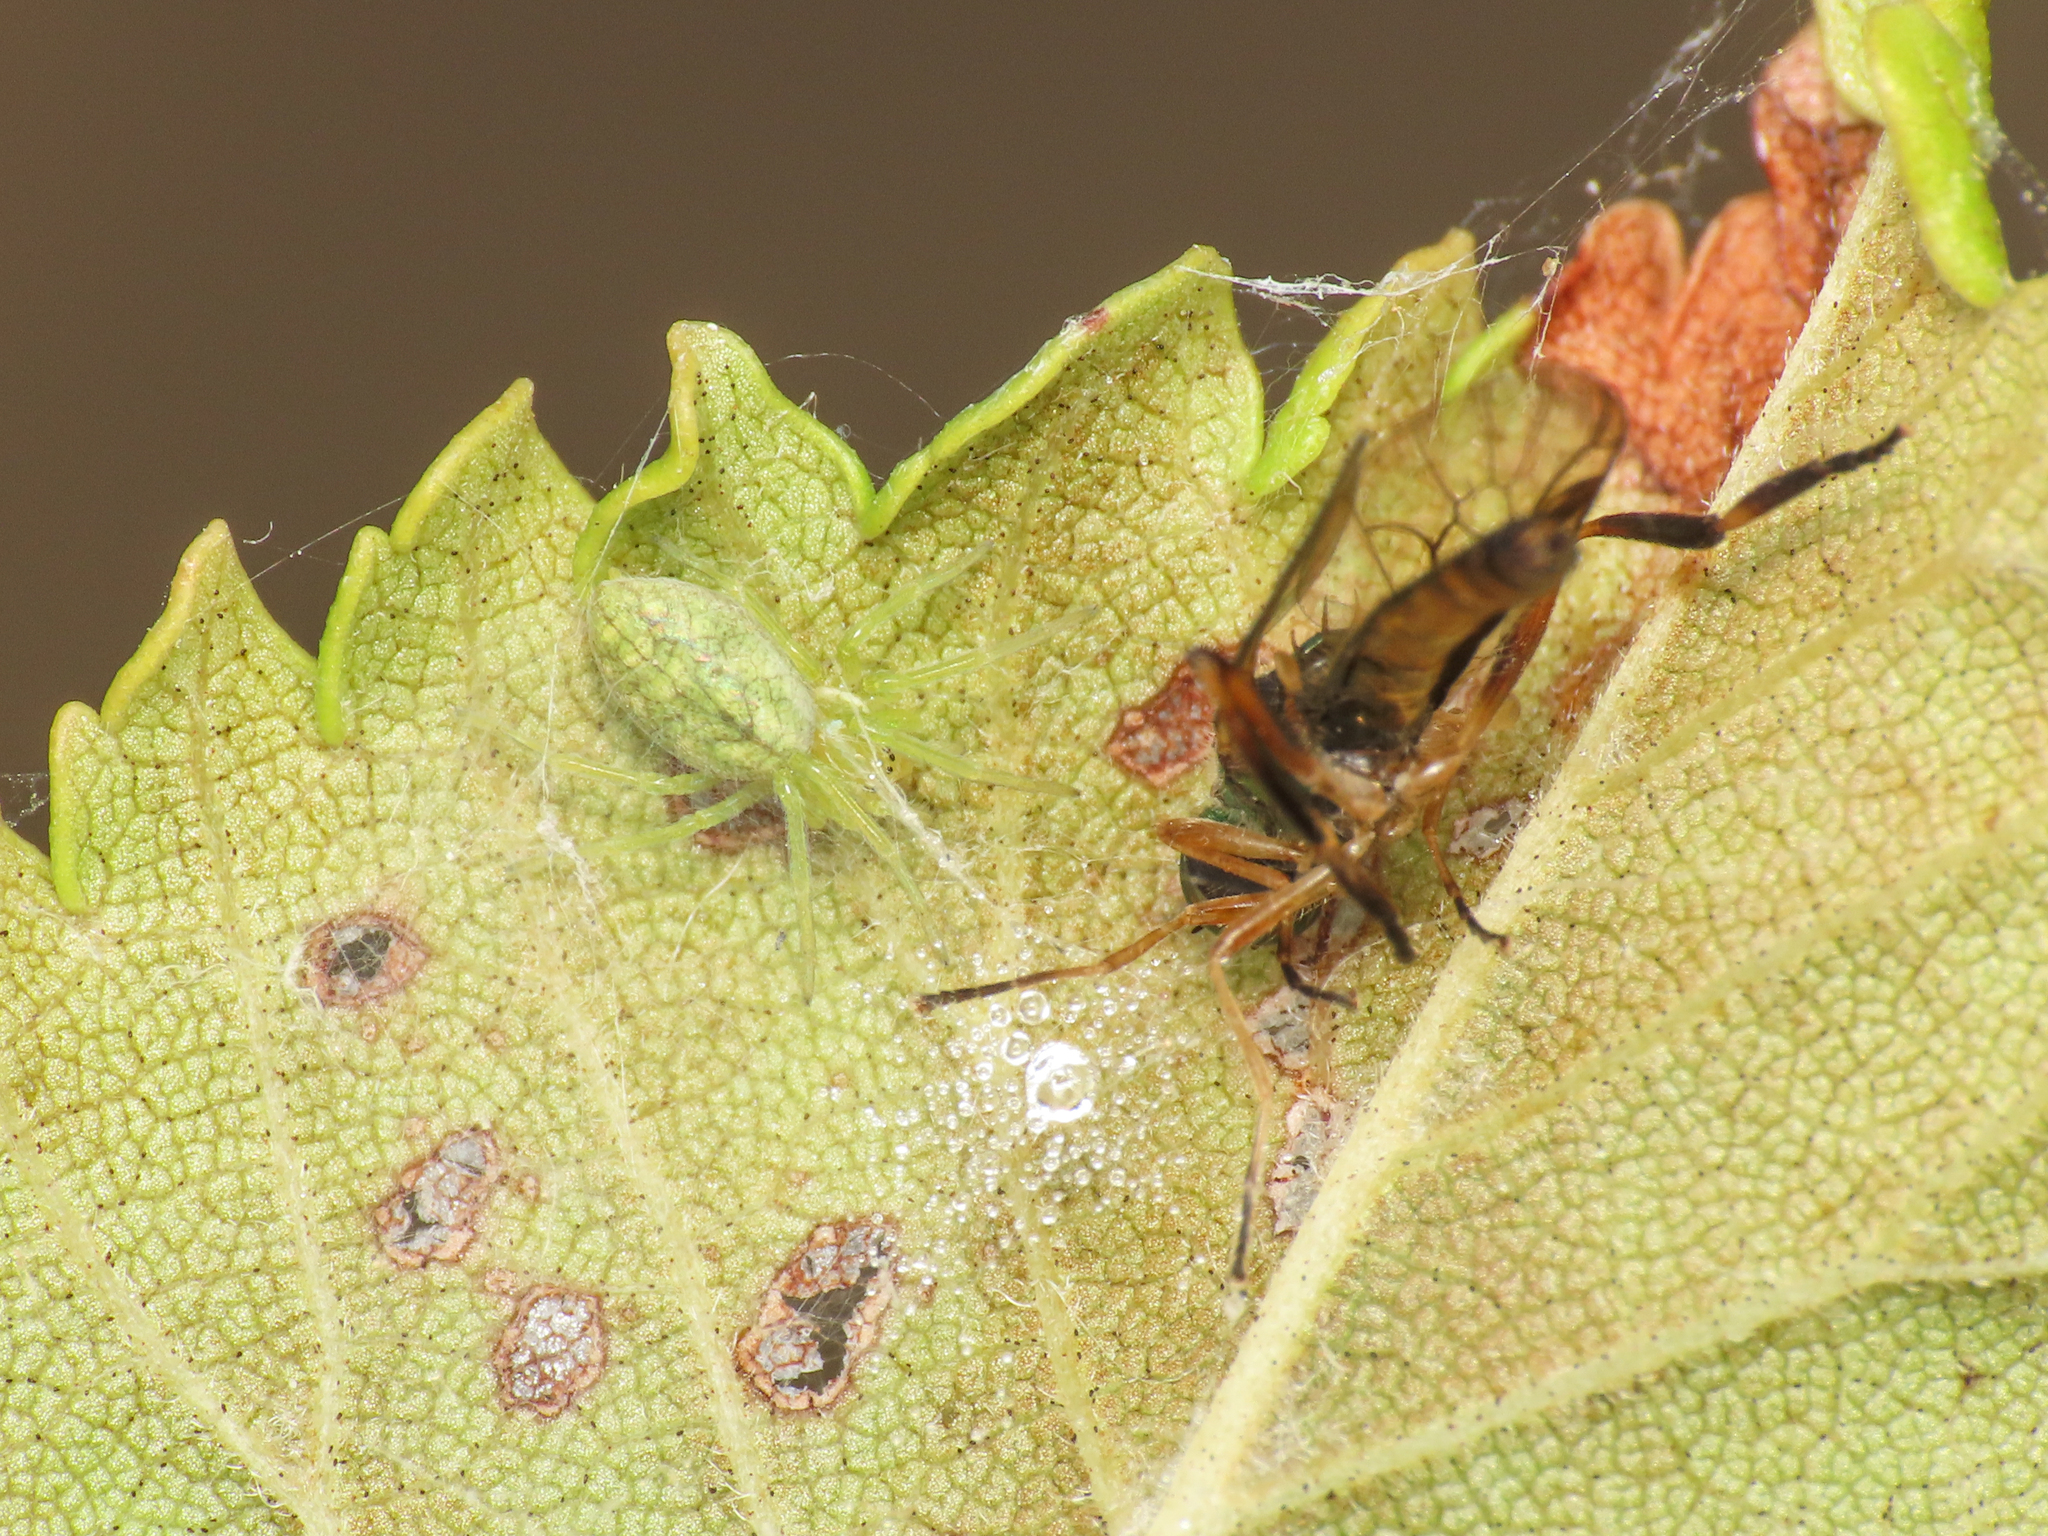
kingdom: Animalia
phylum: Arthropoda
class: Arachnida
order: Araneae
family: Dictynidae
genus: Nigma
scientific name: Nigma walckenaeri
